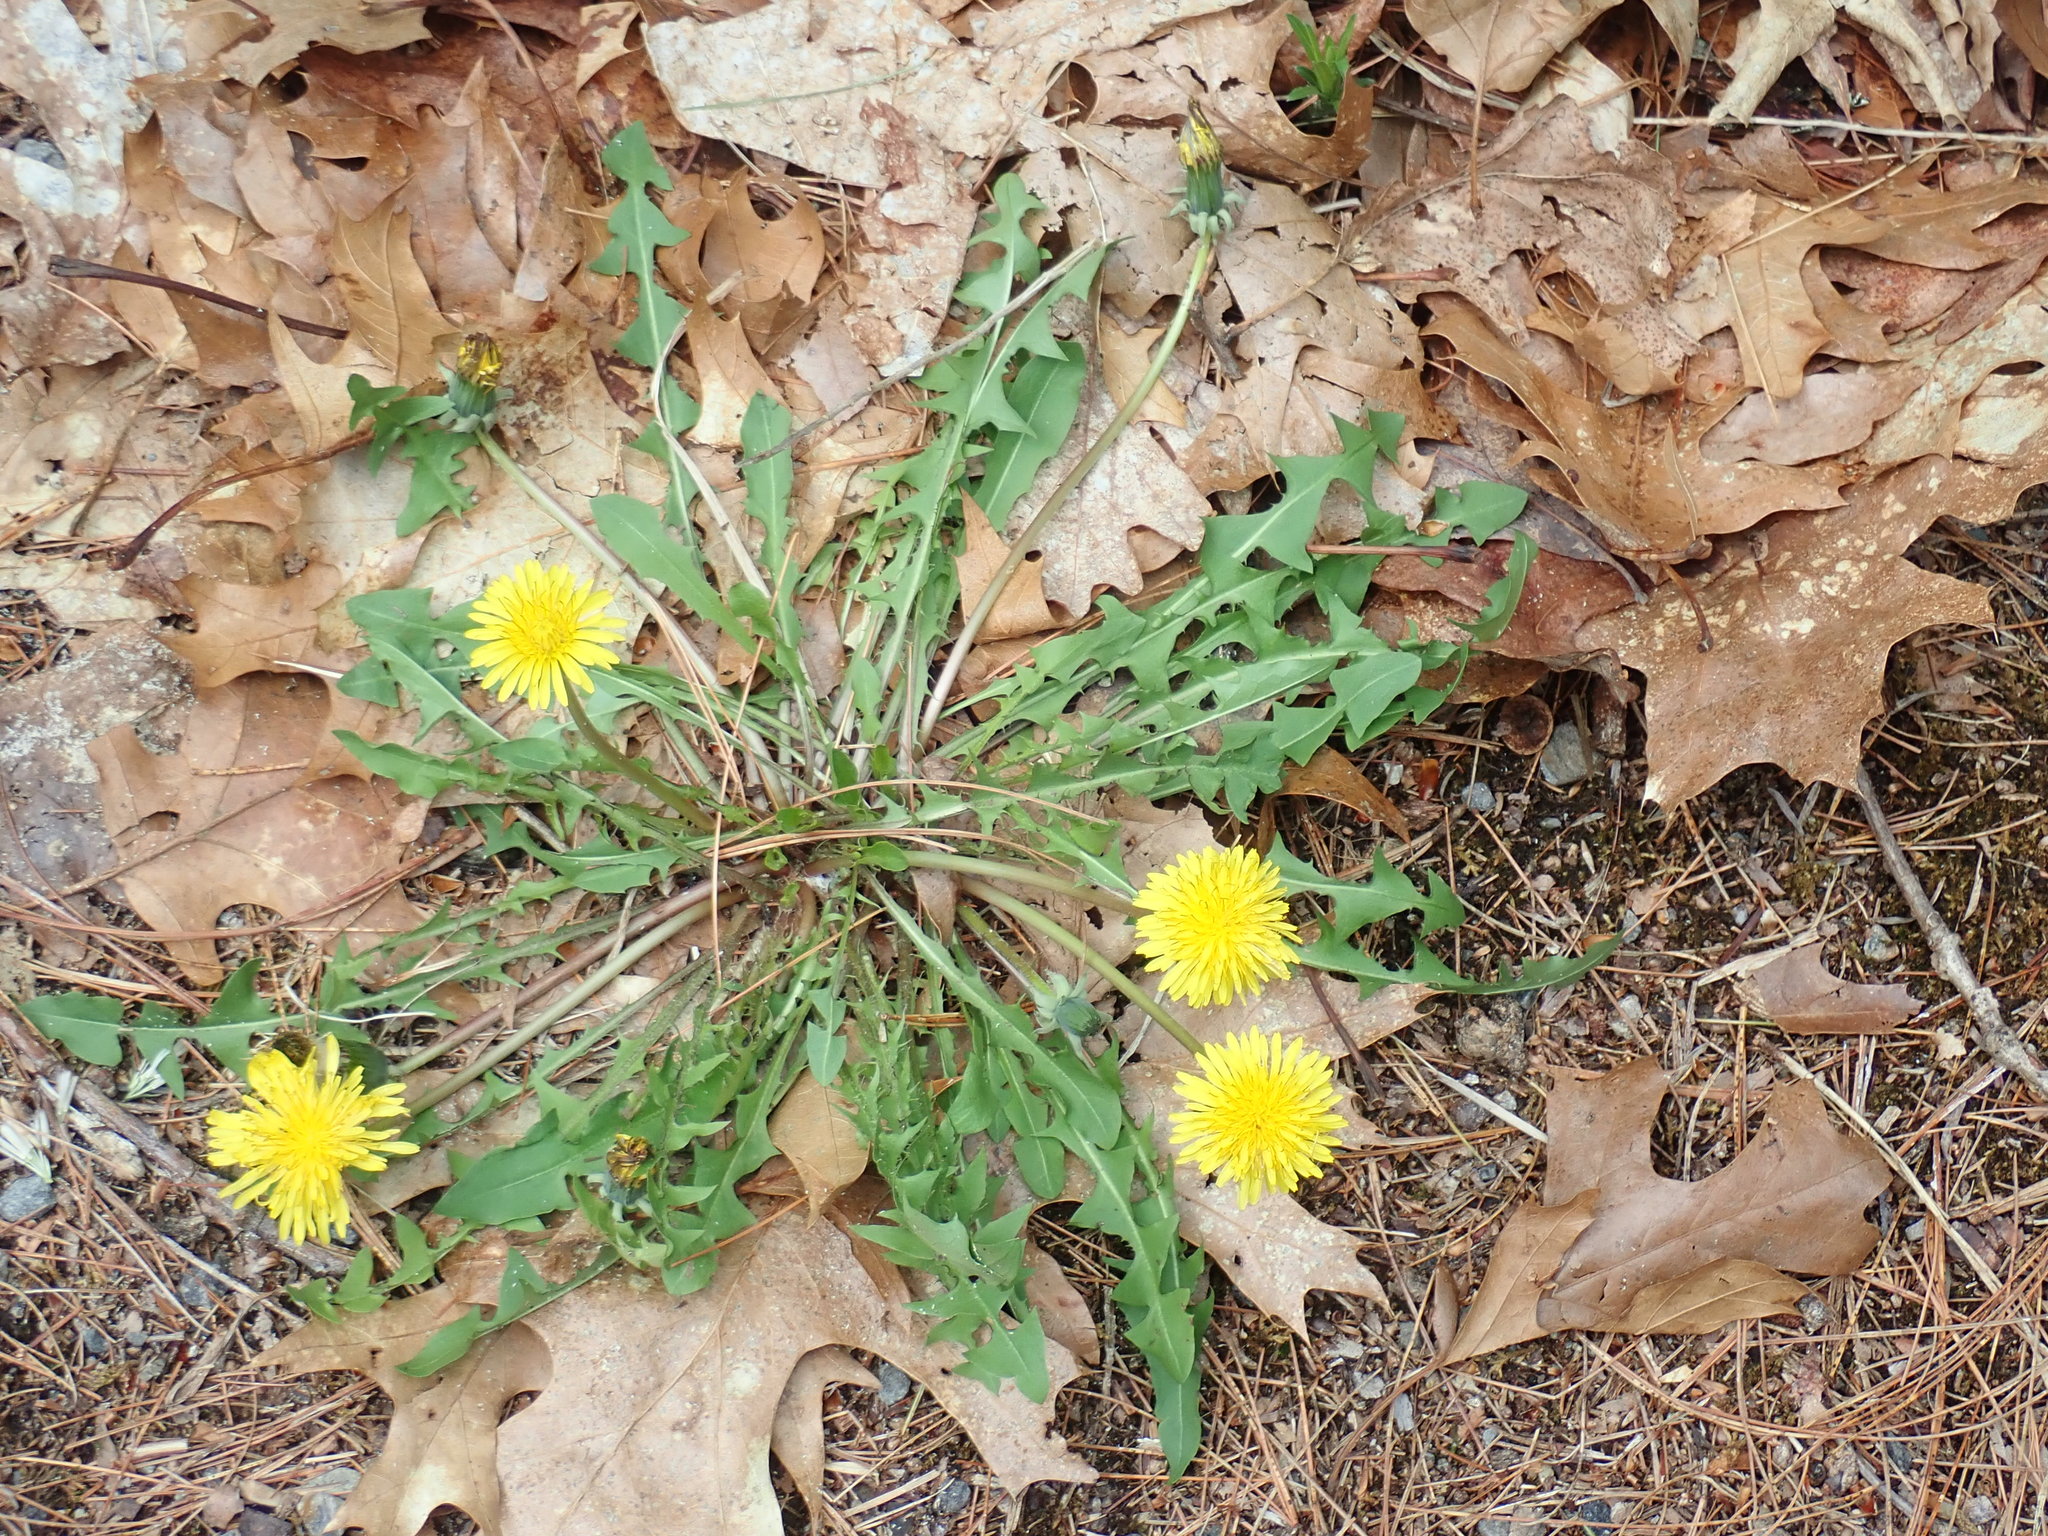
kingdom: Plantae
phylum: Tracheophyta
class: Magnoliopsida
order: Asterales
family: Asteraceae
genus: Taraxacum
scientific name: Taraxacum
